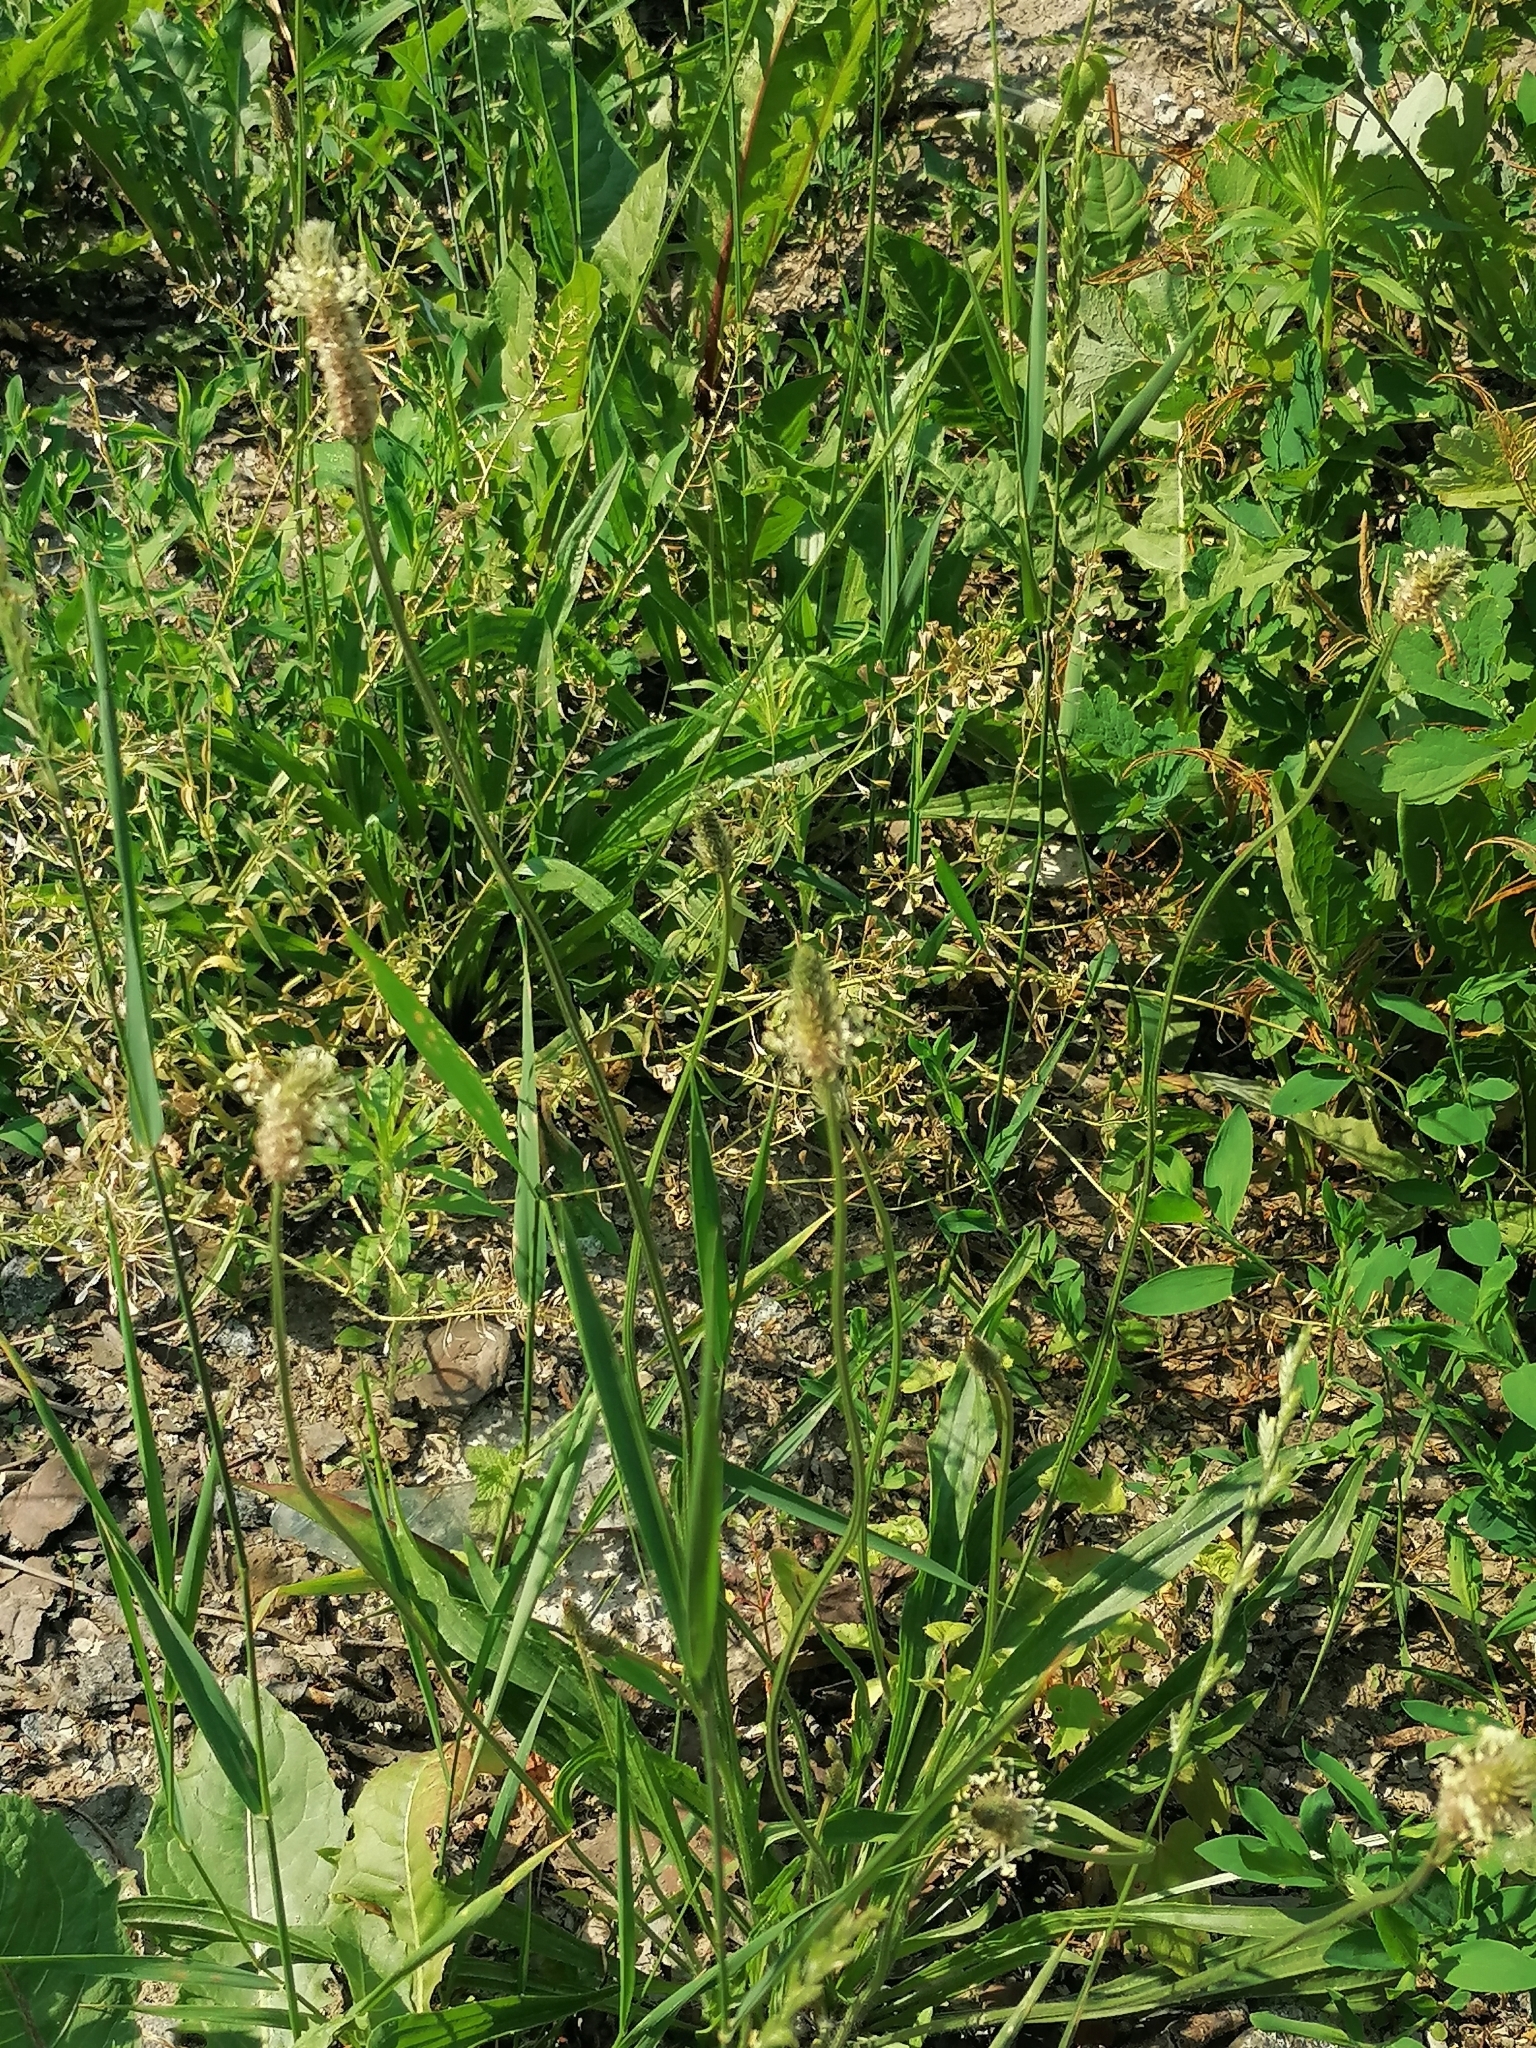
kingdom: Plantae
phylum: Tracheophyta
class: Magnoliopsida
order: Lamiales
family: Plantaginaceae
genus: Plantago
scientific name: Plantago lanceolata
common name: Ribwort plantain
